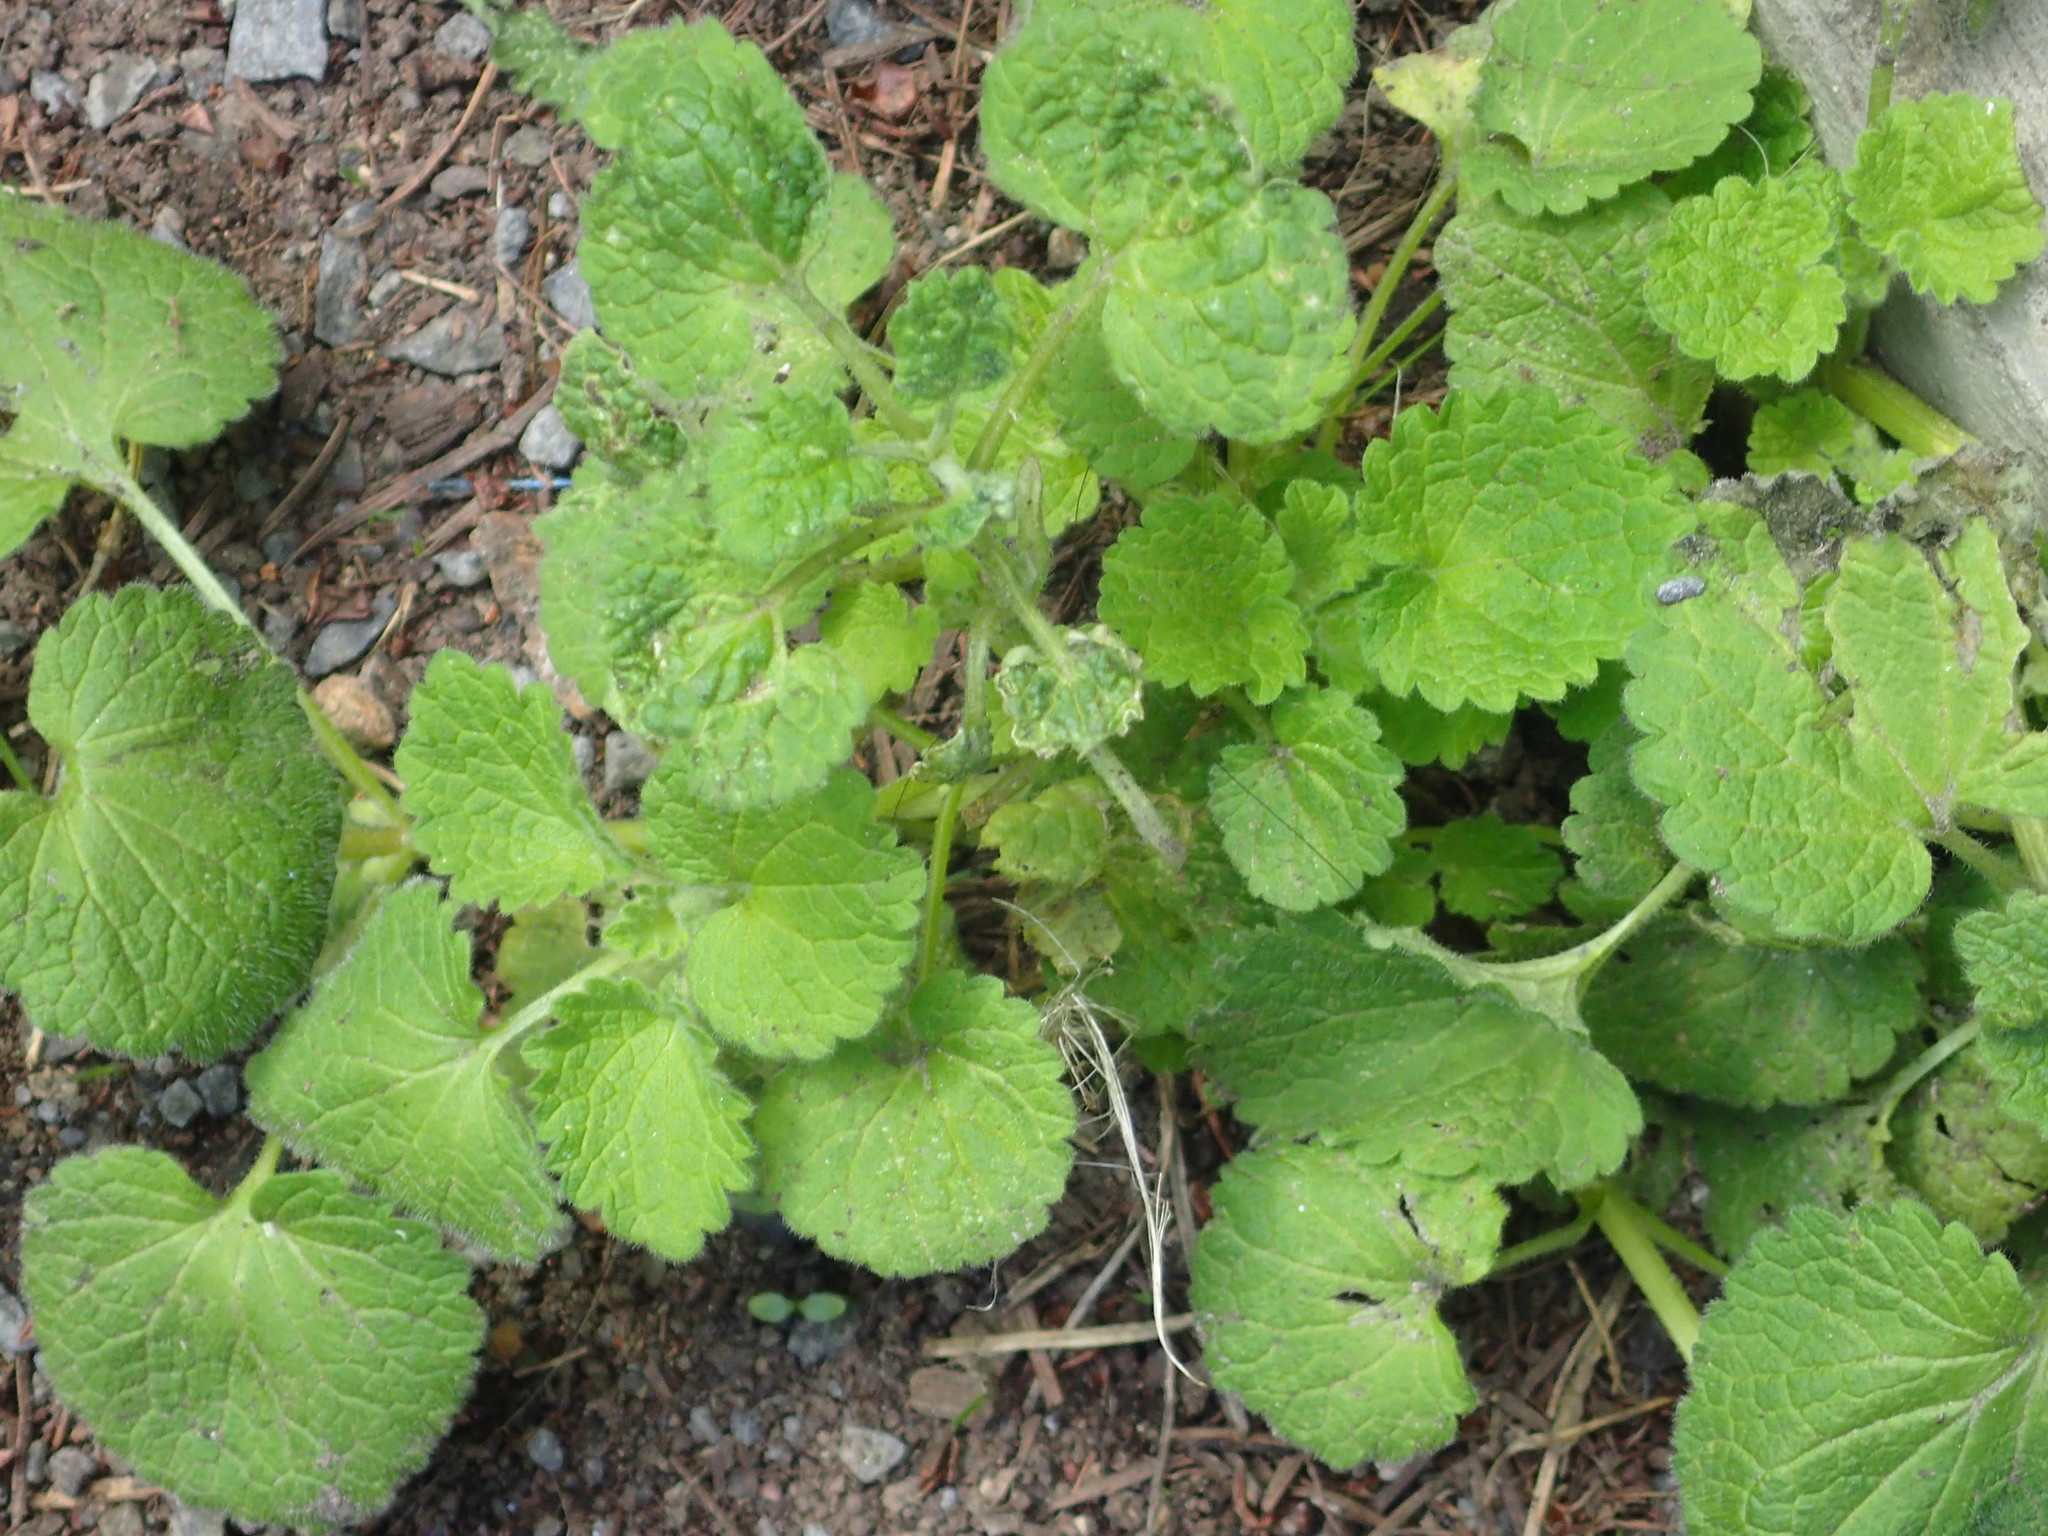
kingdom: Plantae
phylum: Tracheophyta
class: Magnoliopsida
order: Lamiales
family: Lamiaceae
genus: Lamium
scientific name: Lamium purpureum
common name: Red dead-nettle
